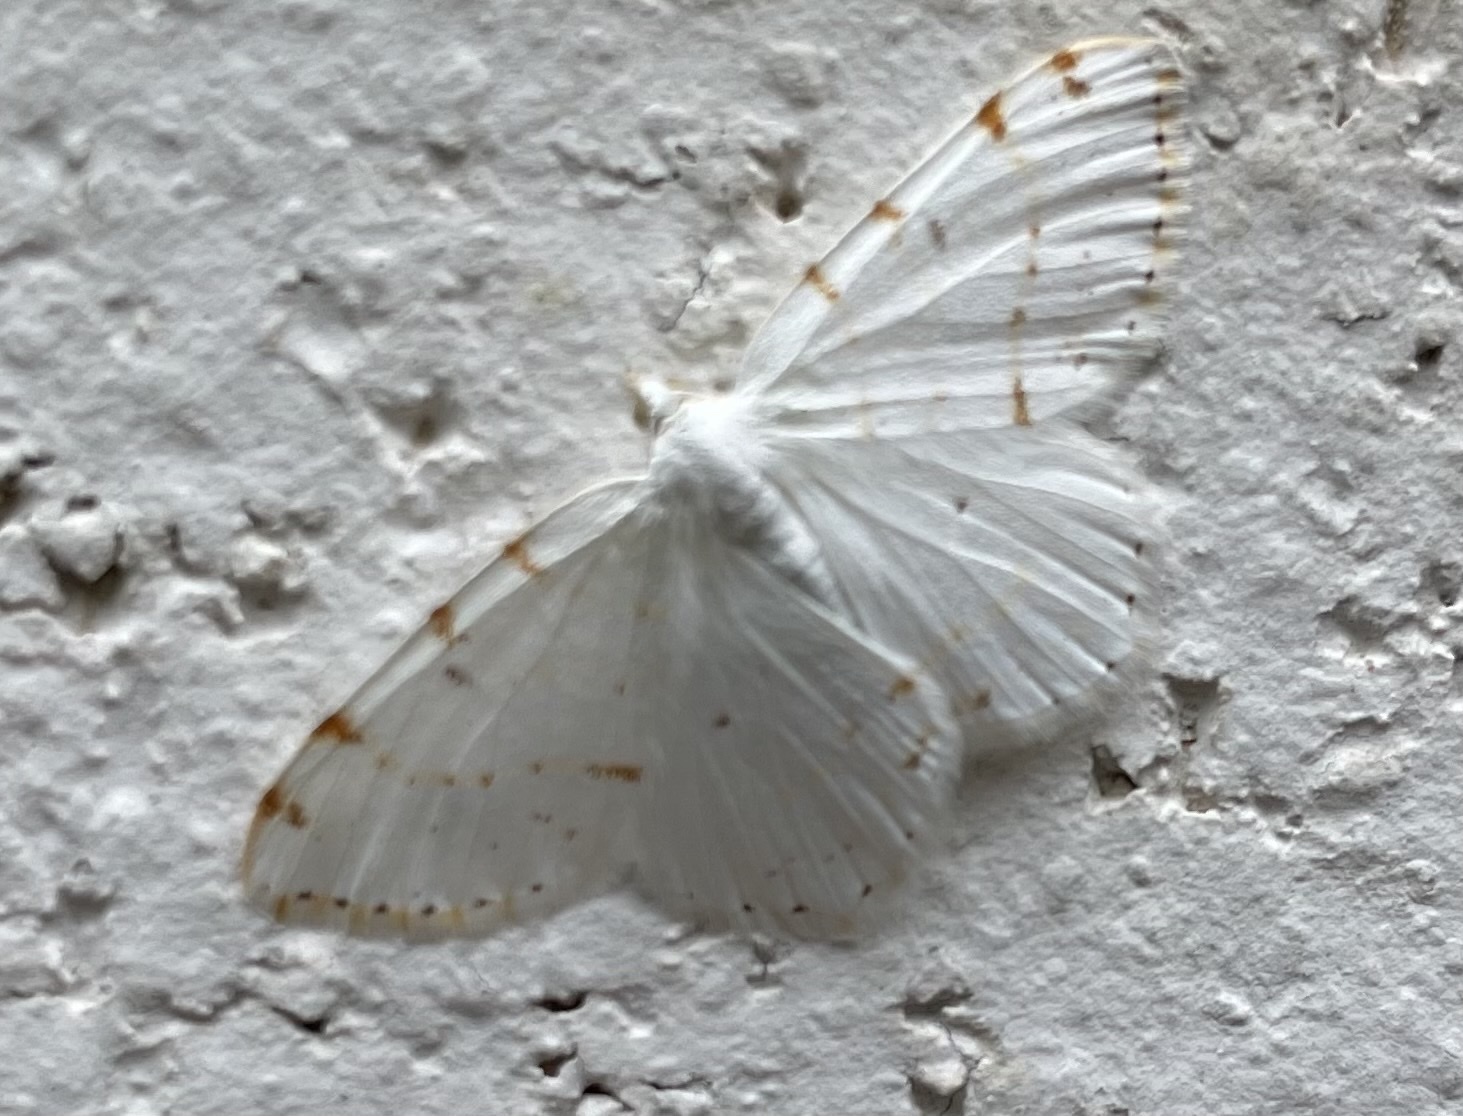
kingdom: Animalia
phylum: Arthropoda
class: Insecta
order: Lepidoptera
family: Geometridae
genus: Macaria
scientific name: Macaria pustularia
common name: Lesser maple spanworm moth
